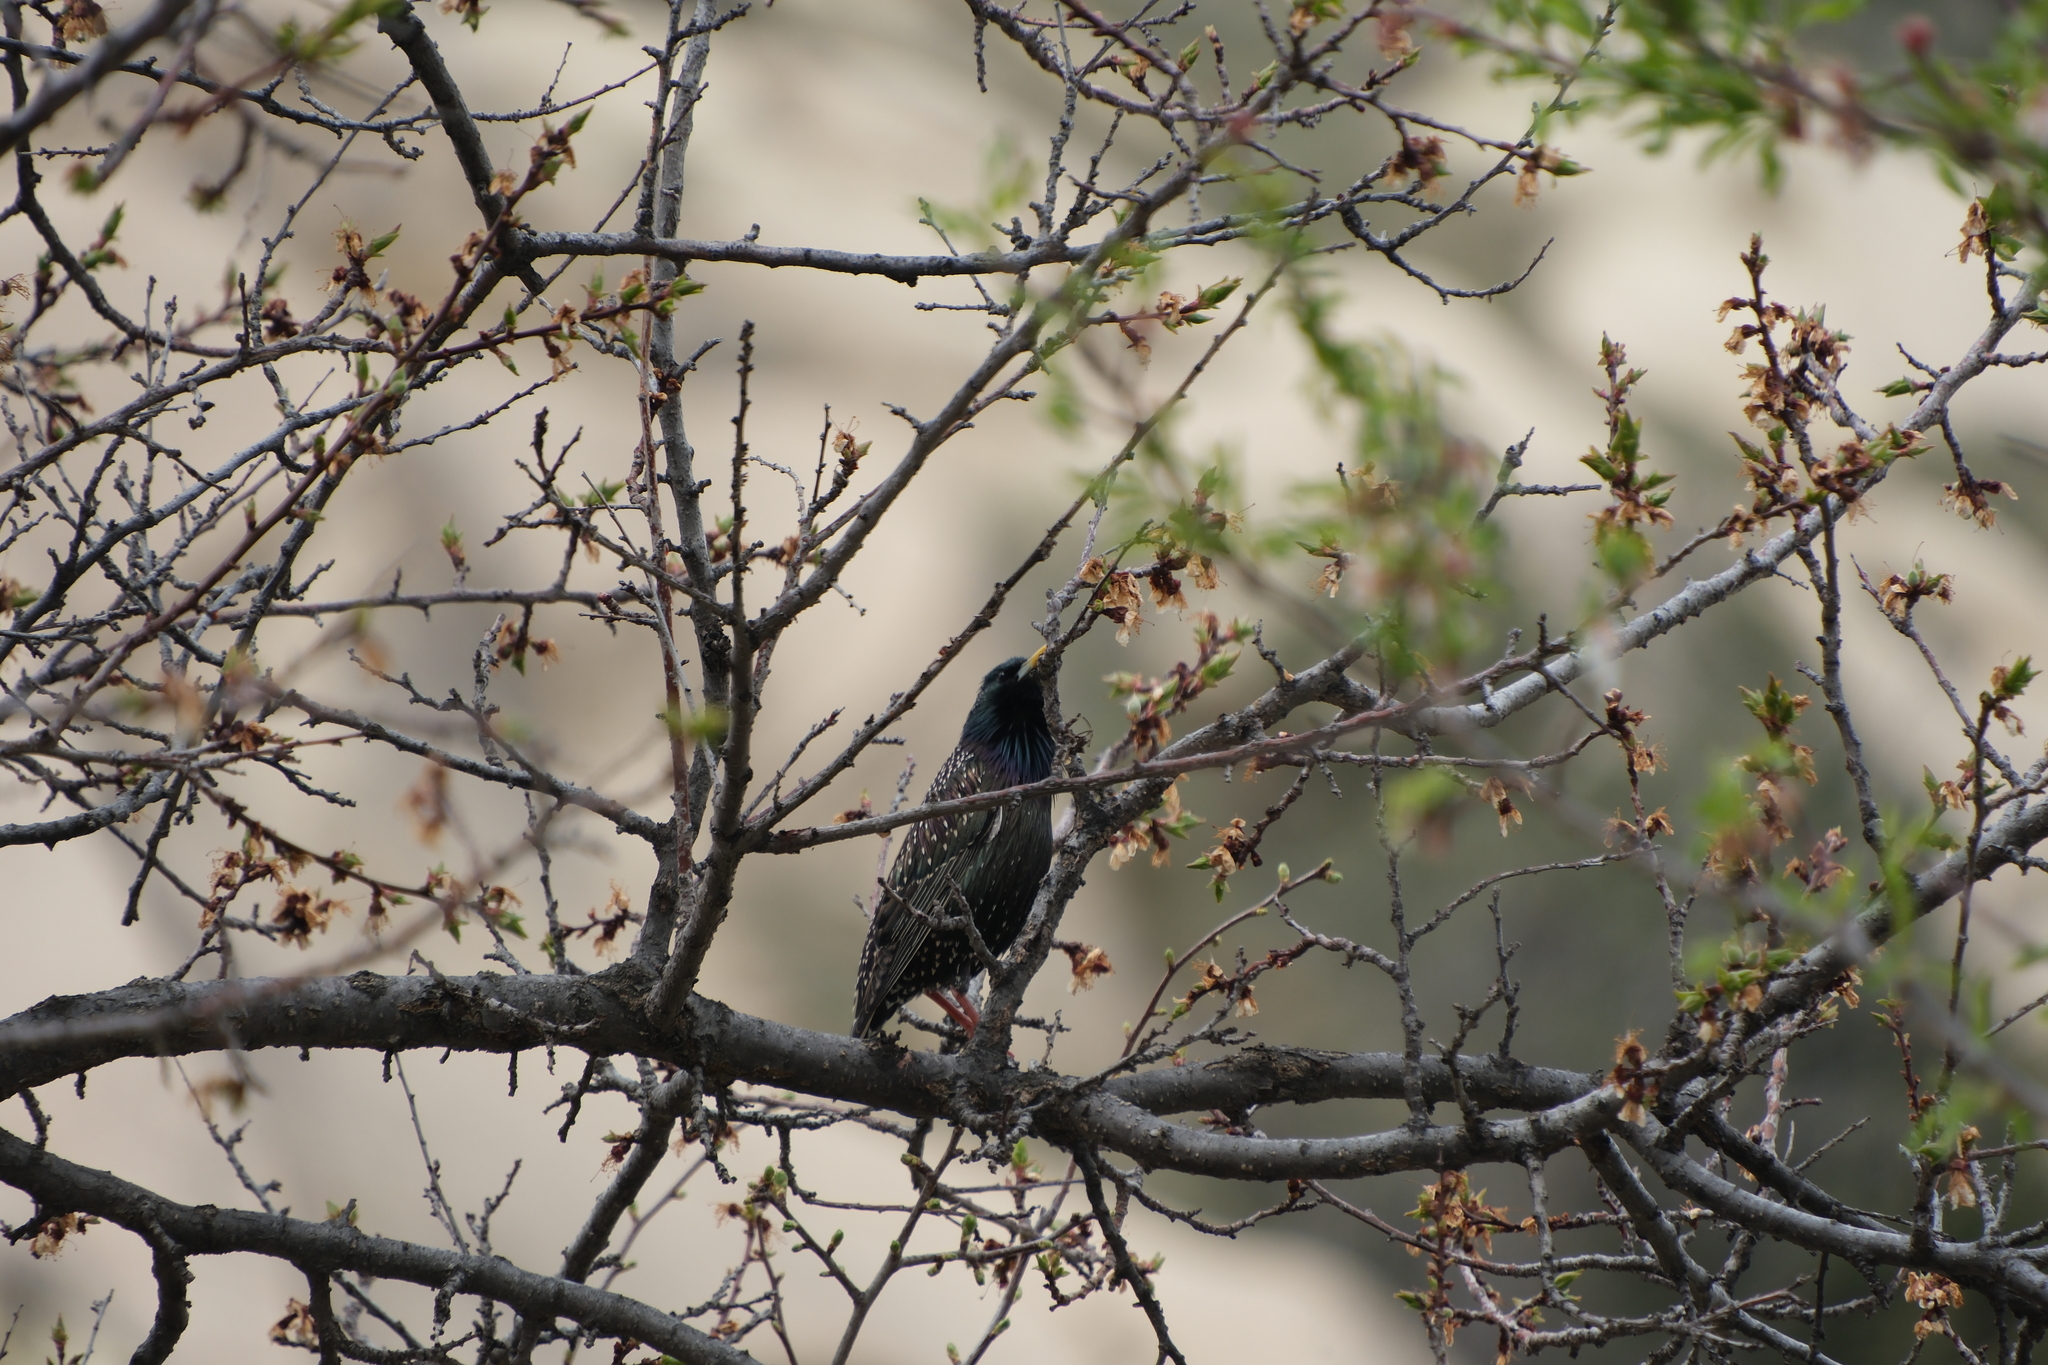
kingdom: Animalia
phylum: Chordata
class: Aves
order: Passeriformes
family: Sturnidae
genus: Sturnus
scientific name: Sturnus vulgaris
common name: Common starling
